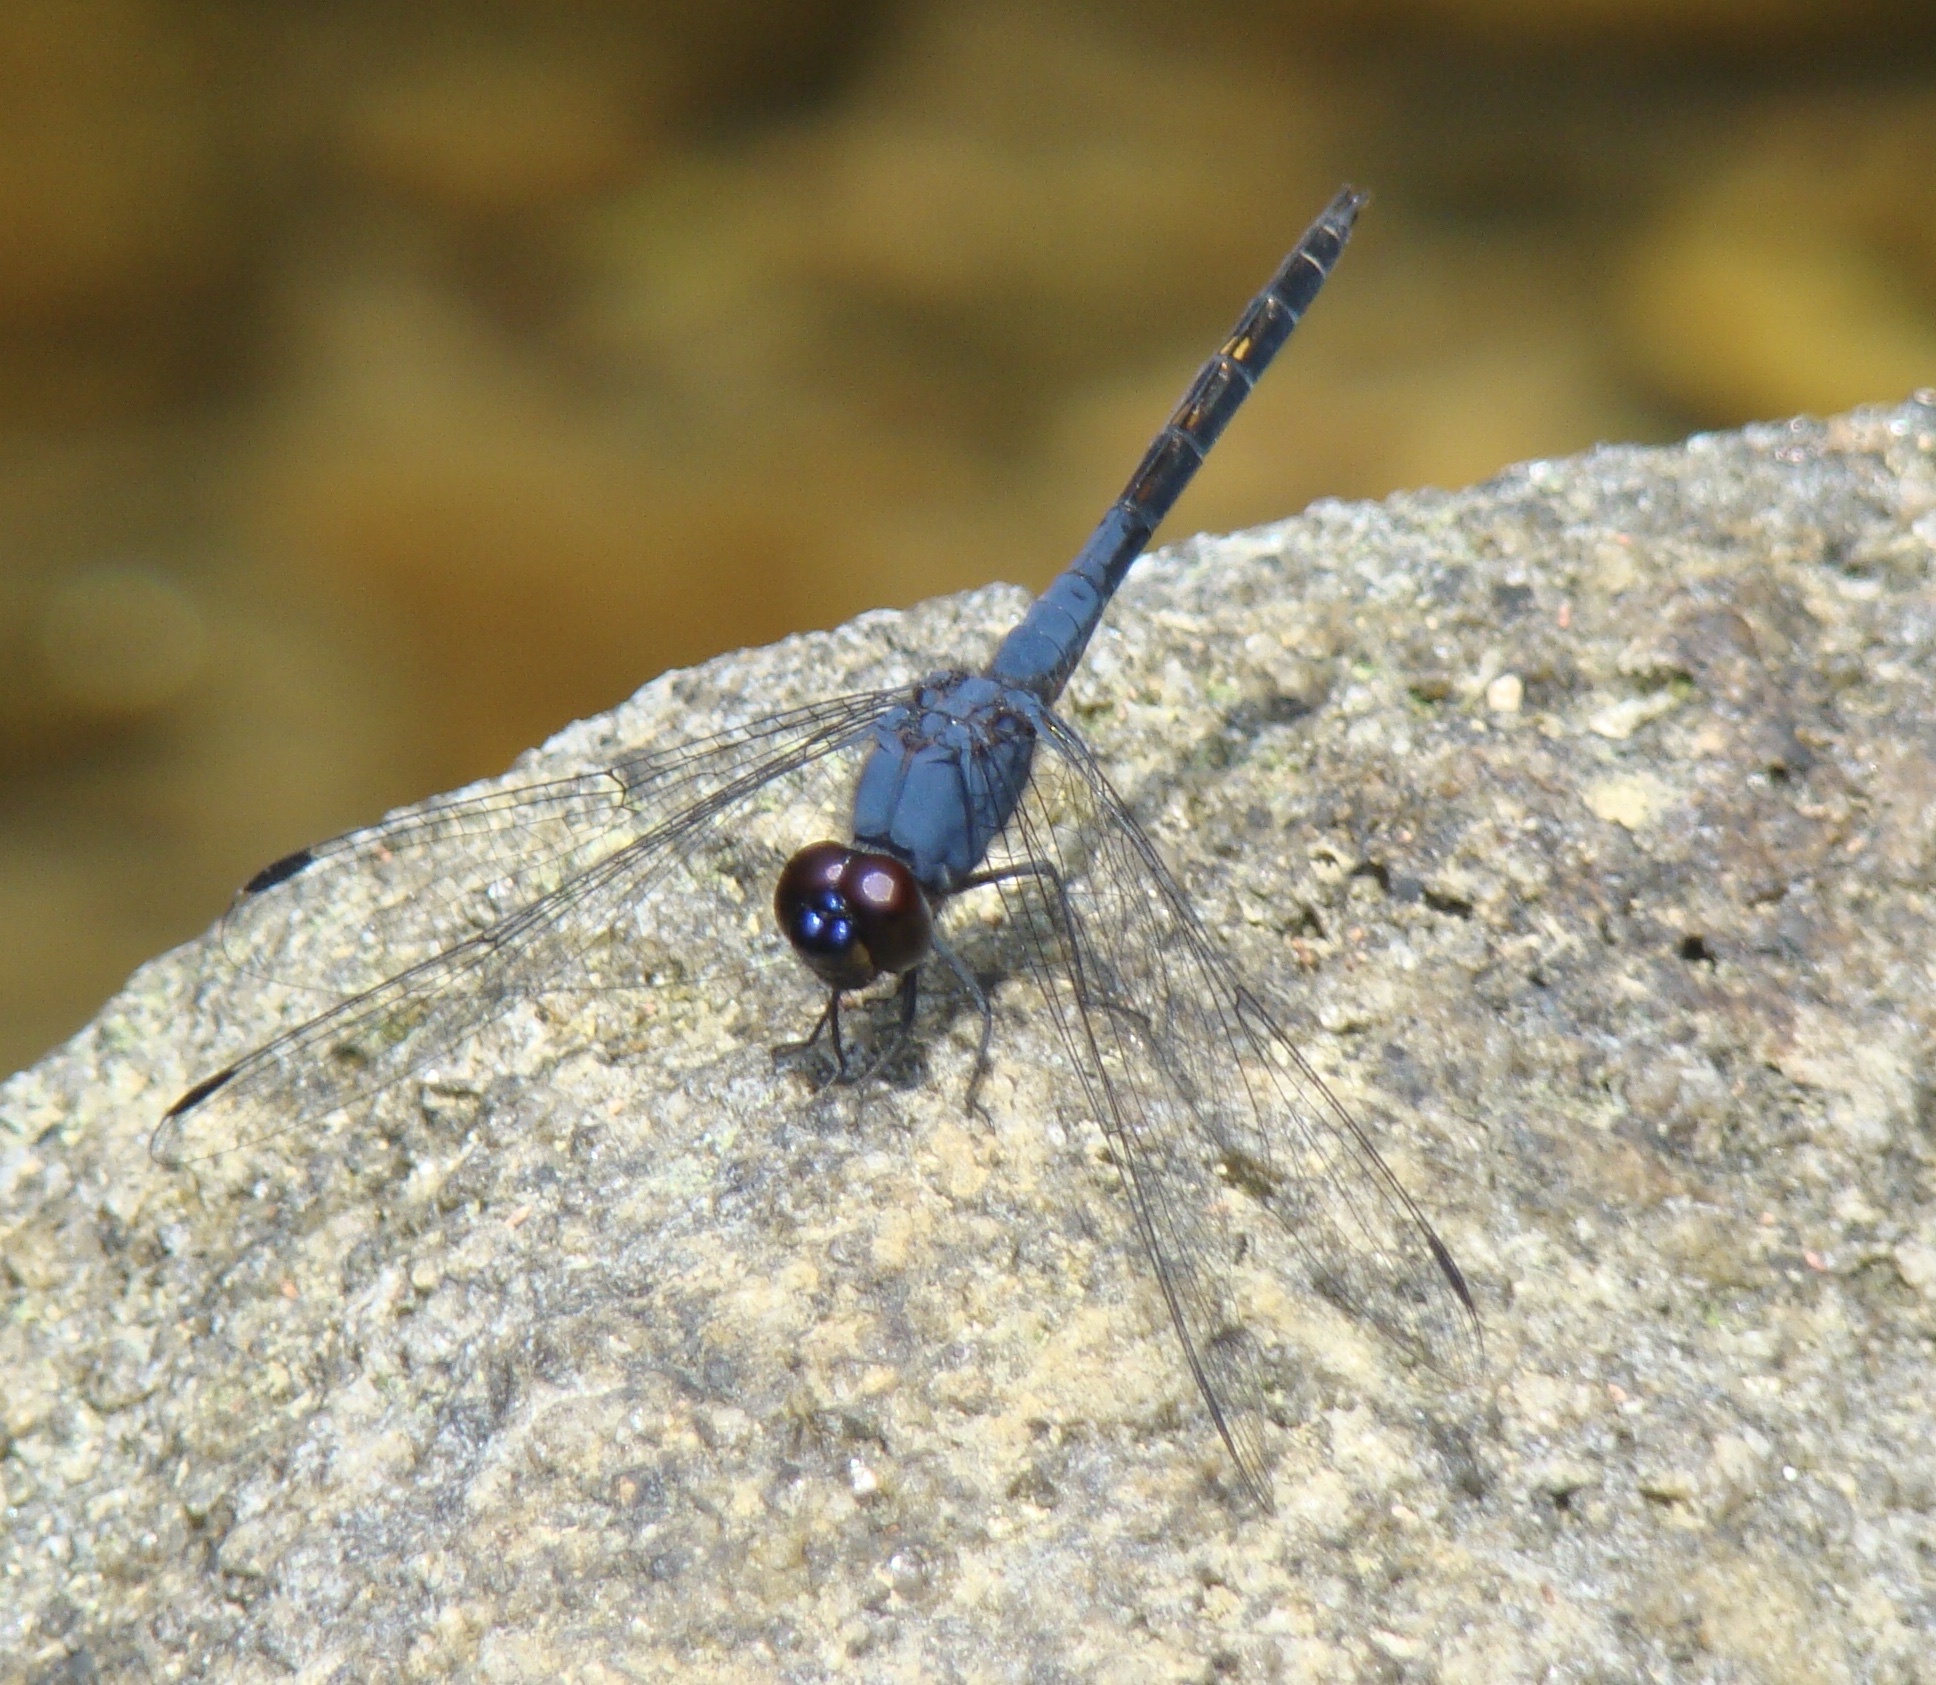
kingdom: Animalia
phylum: Arthropoda
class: Insecta
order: Odonata
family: Libellulidae
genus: Trithemis
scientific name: Trithemis festiva
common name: Indigo dropwing
